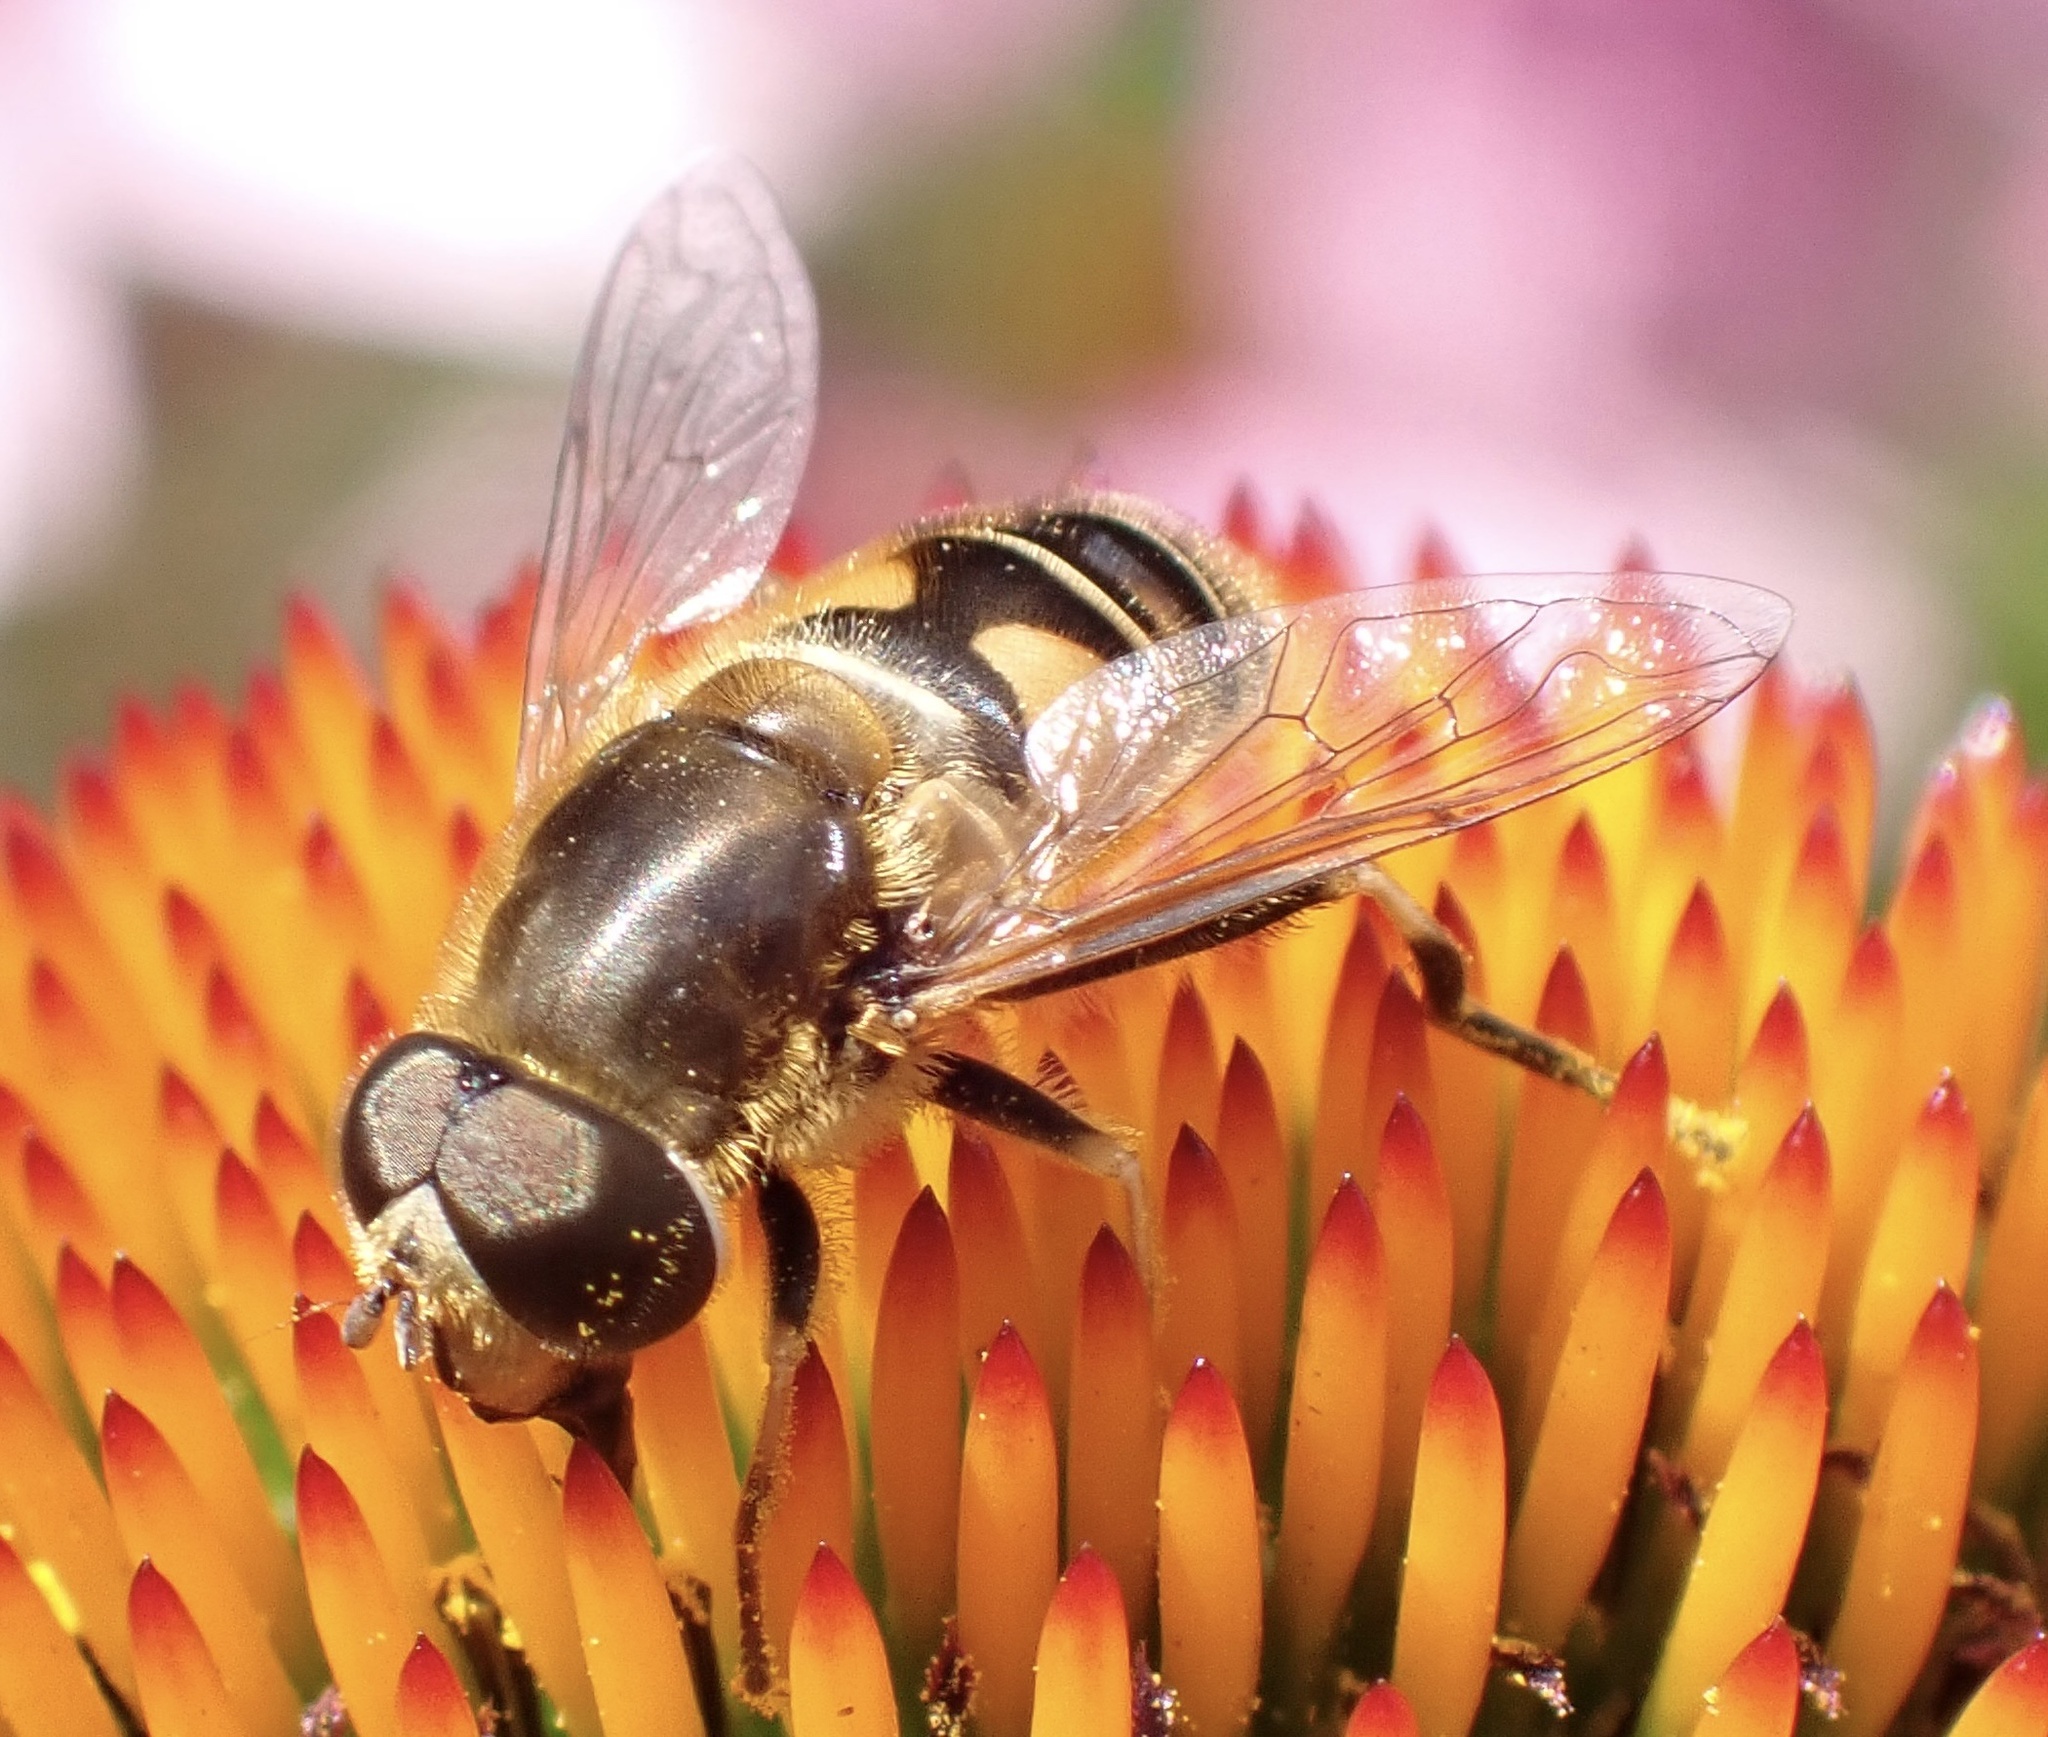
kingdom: Animalia
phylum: Arthropoda
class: Insecta
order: Diptera
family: Syrphidae
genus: Eristalis
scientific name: Eristalis nemorum
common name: Orange-spined drone fly
